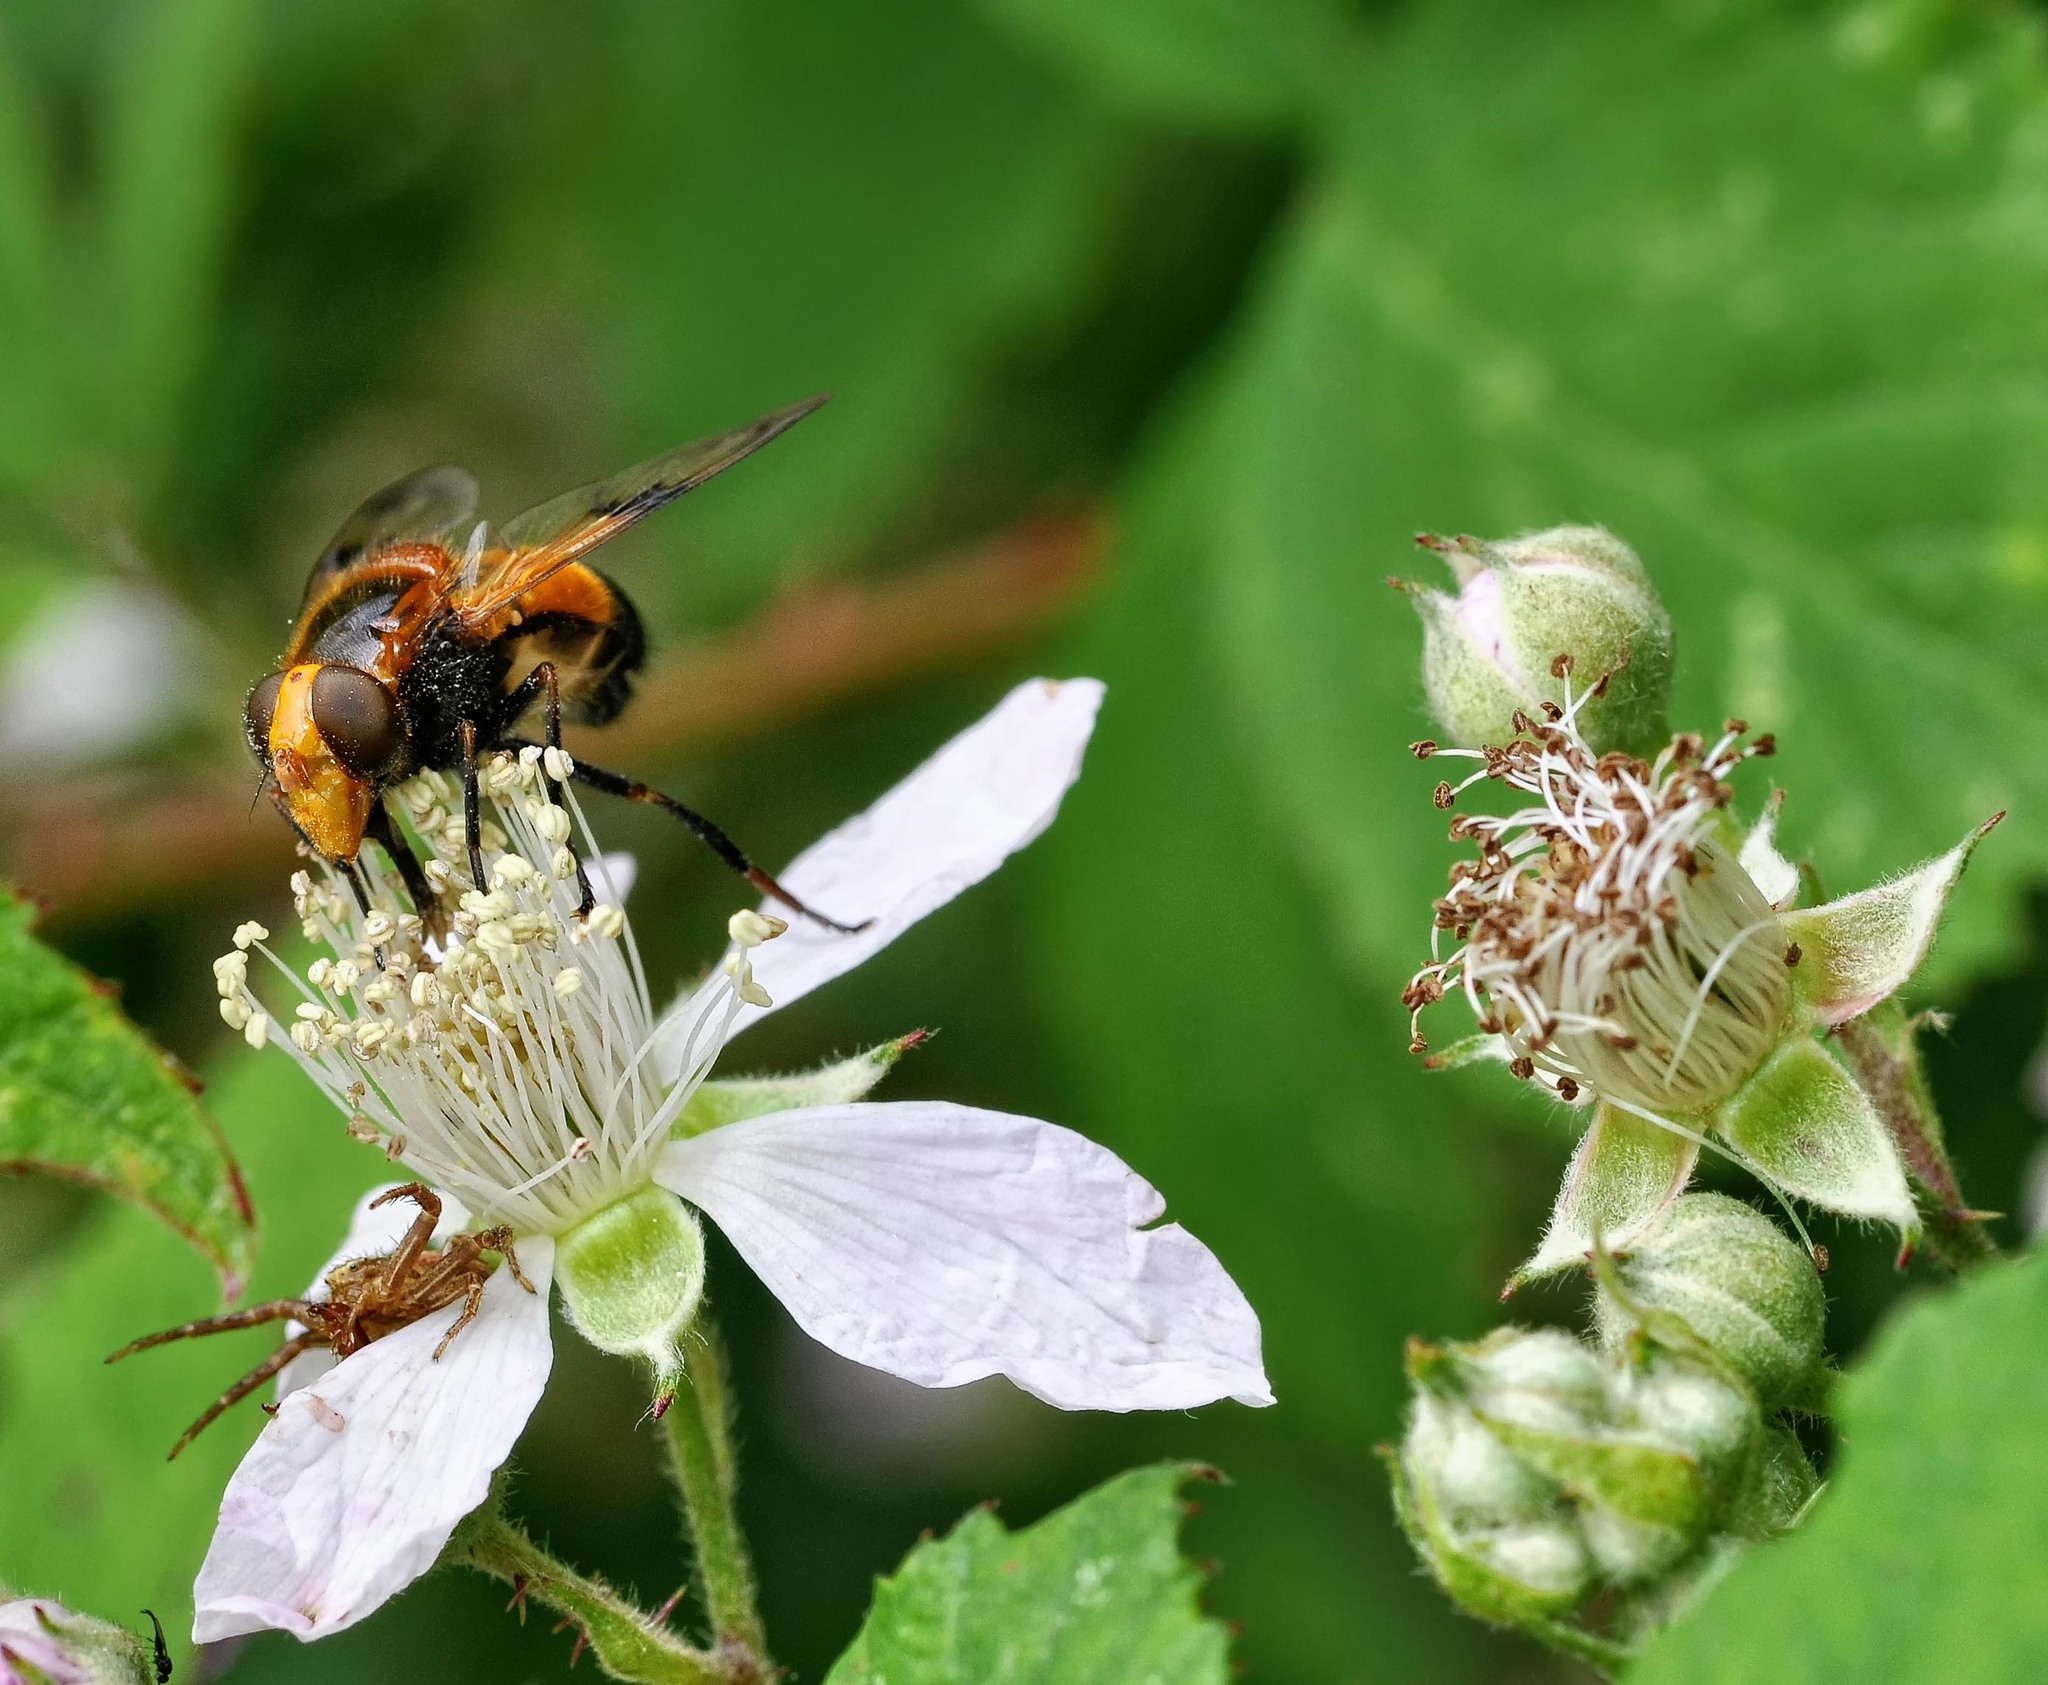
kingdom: Animalia
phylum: Arthropoda
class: Insecta
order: Diptera
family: Syrphidae
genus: Volucella
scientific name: Volucella inflata
